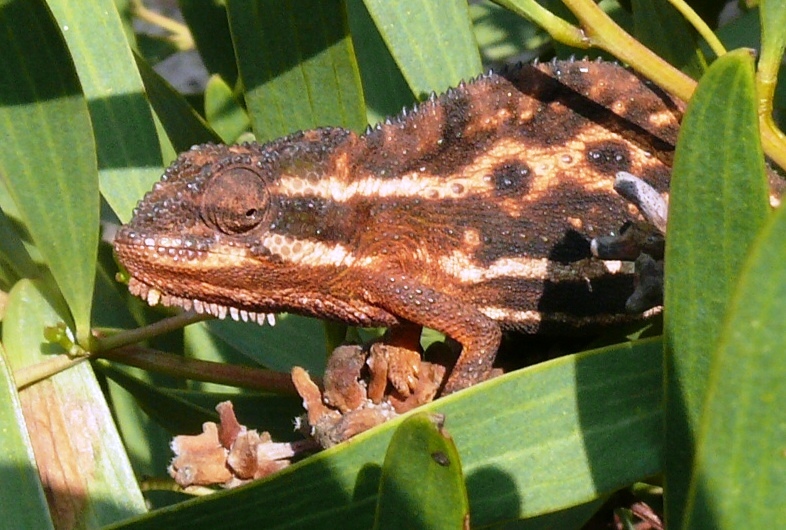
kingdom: Animalia
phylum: Chordata
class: Squamata
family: Chamaeleonidae
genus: Bradypodion
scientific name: Bradypodion pumilum
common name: Cape dwarf chameleon
